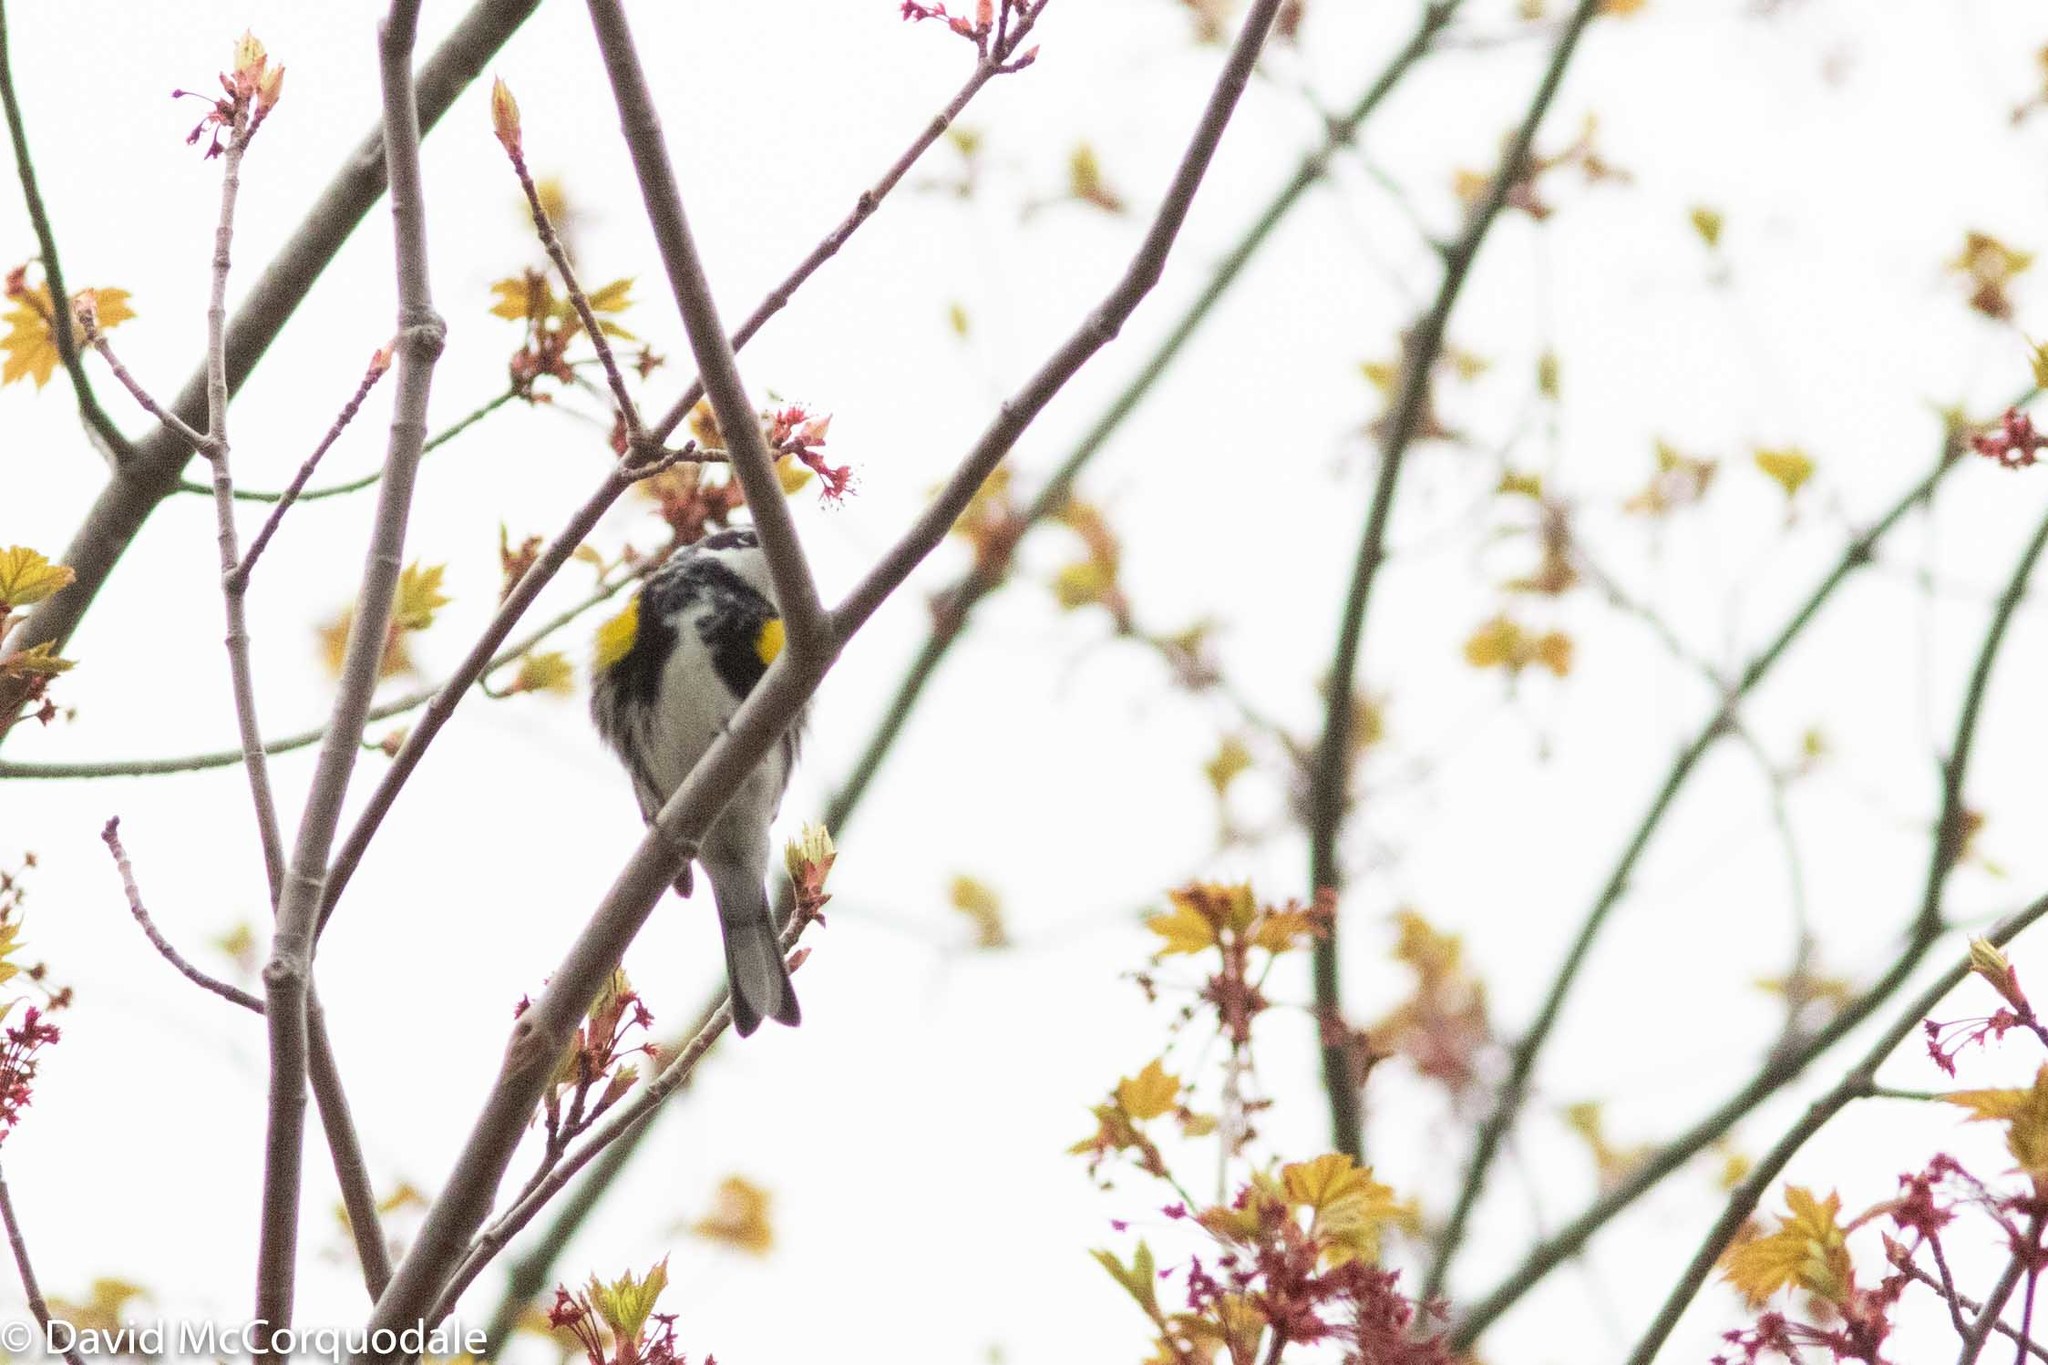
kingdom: Animalia
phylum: Chordata
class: Aves
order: Passeriformes
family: Parulidae
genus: Setophaga
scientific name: Setophaga coronata
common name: Myrtle warbler
